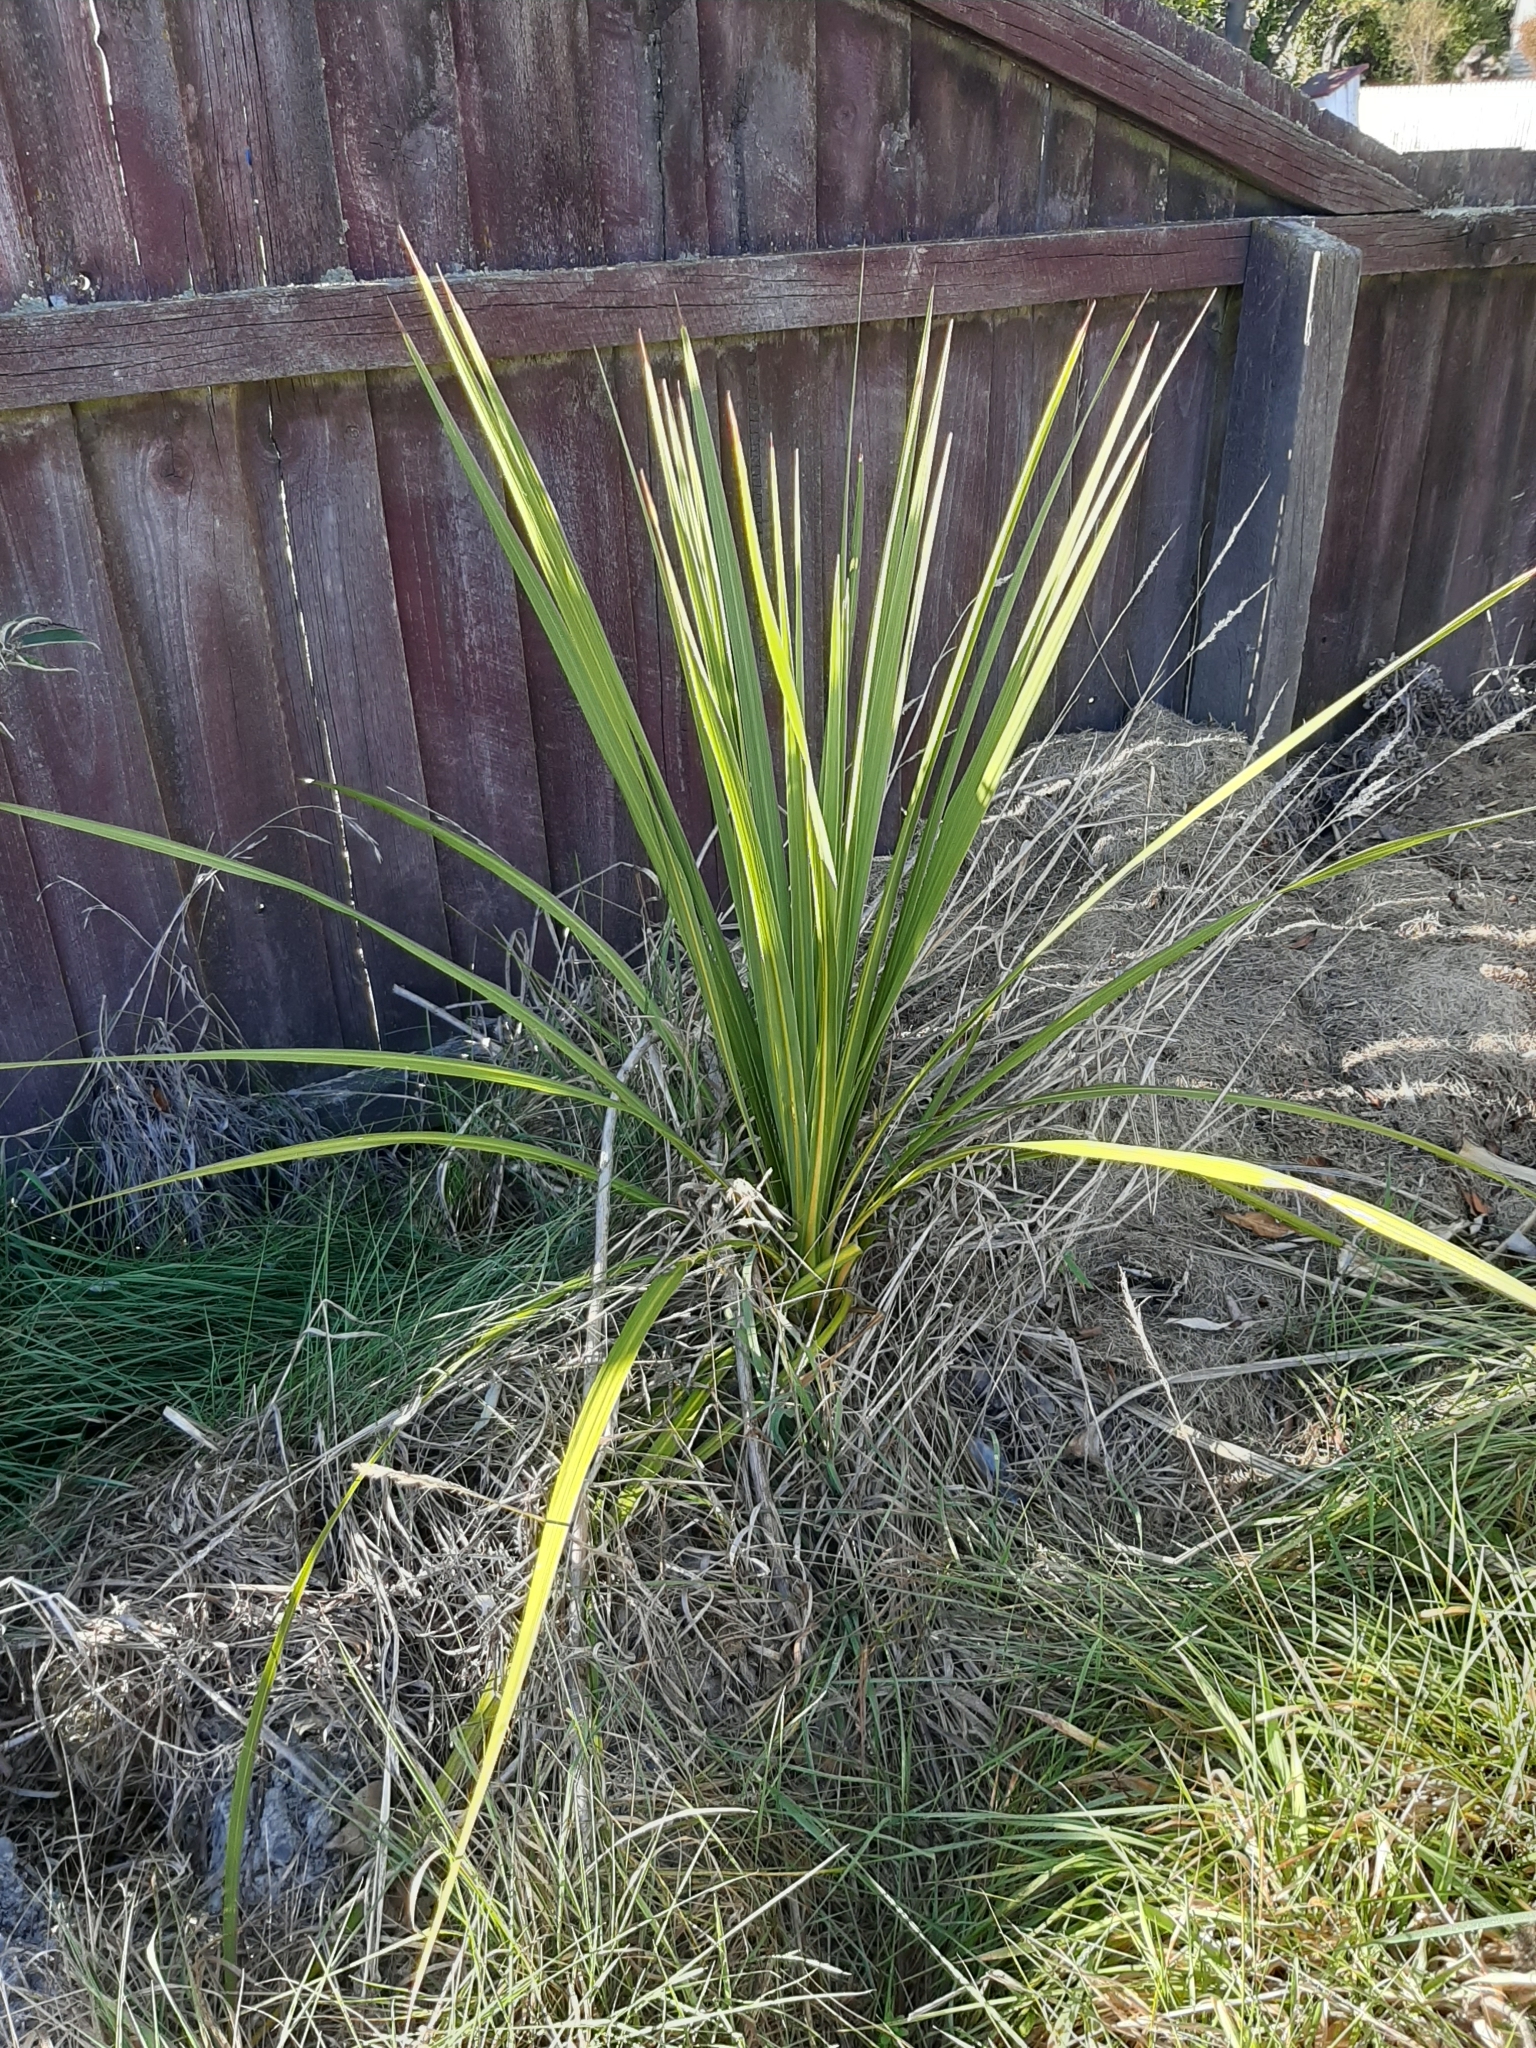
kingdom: Plantae
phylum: Tracheophyta
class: Liliopsida
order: Asparagales
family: Asparagaceae
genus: Cordyline
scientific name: Cordyline australis
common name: Cabbage-palm
